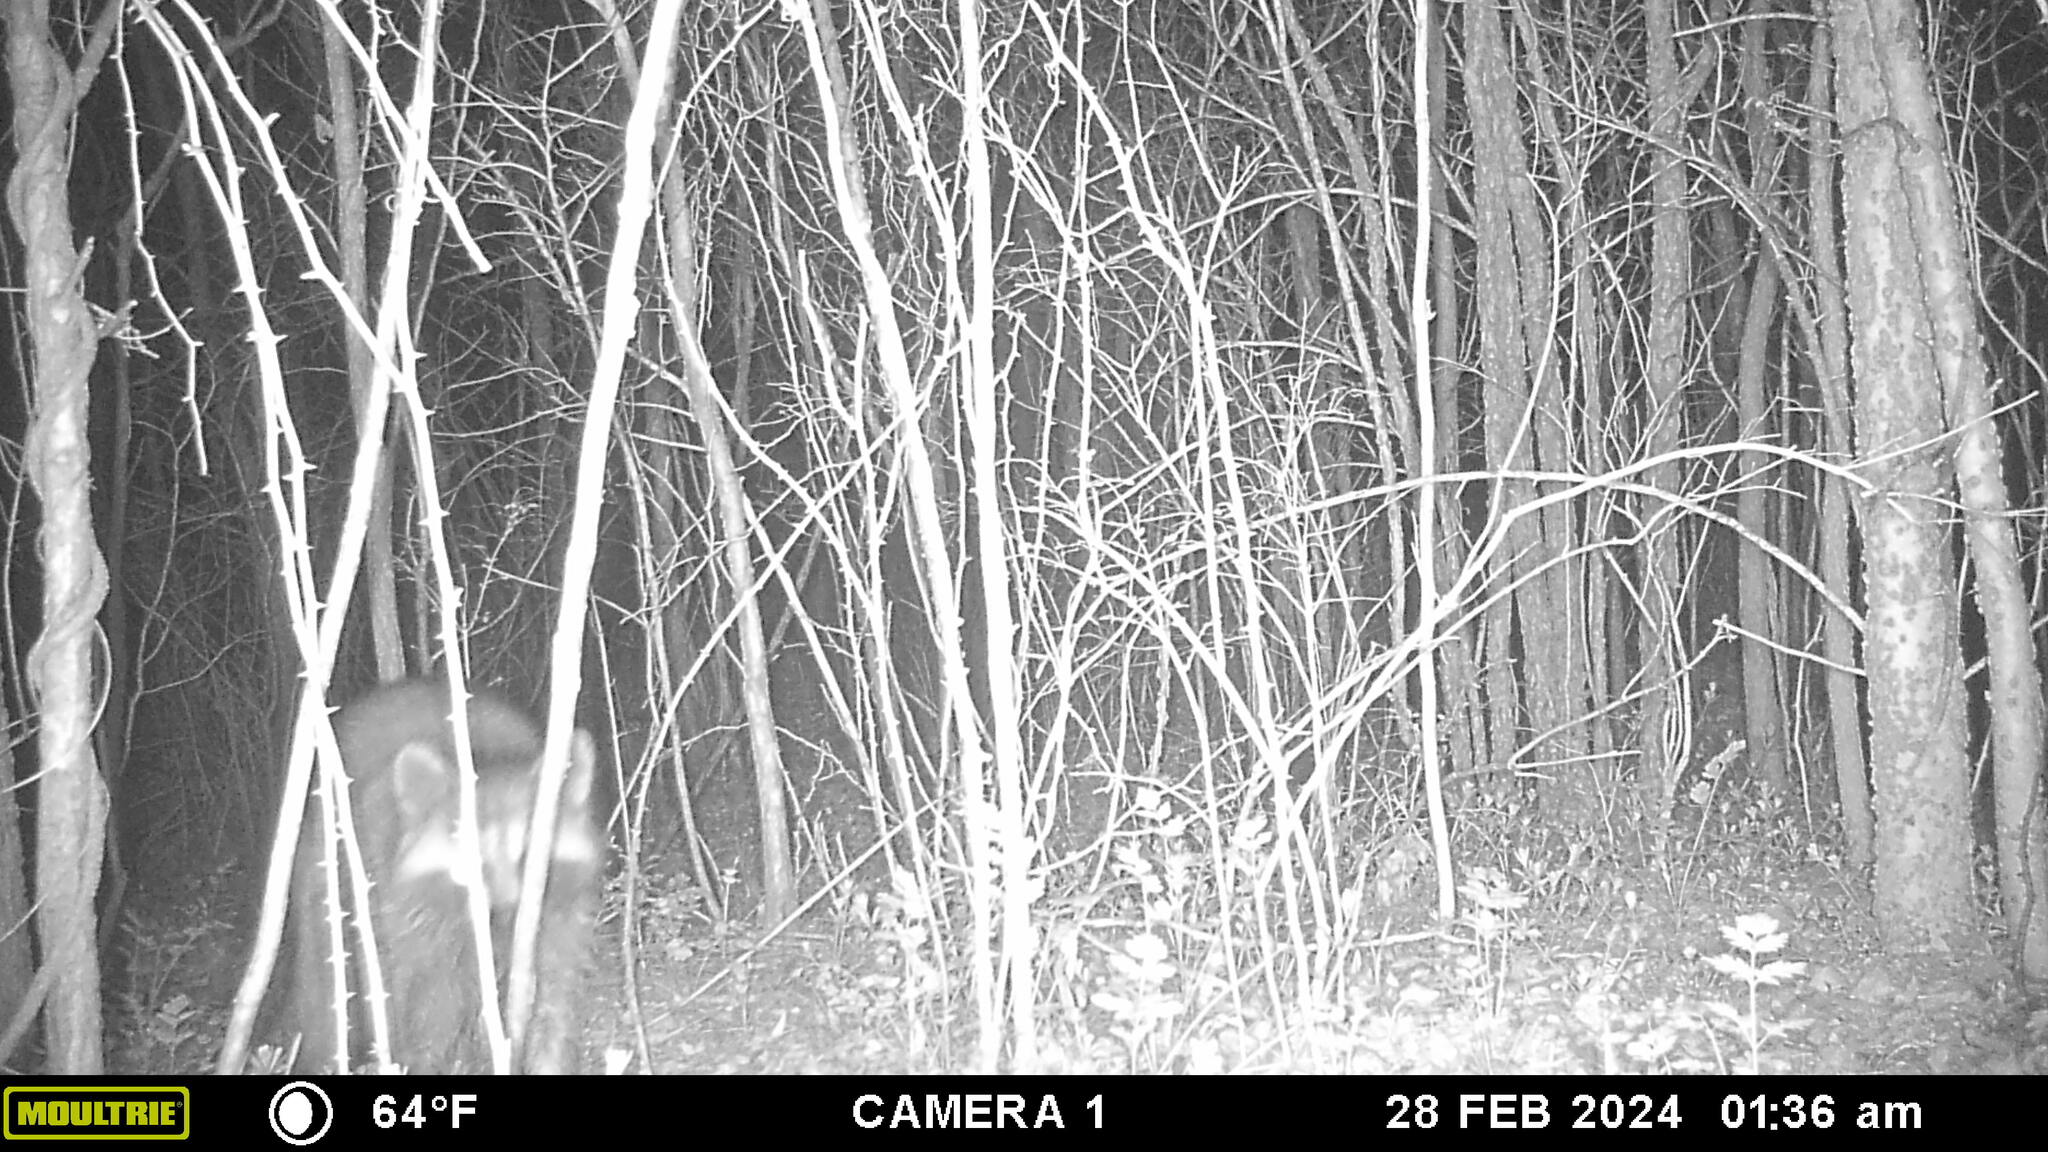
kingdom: Animalia
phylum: Chordata
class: Mammalia
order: Carnivora
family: Procyonidae
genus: Procyon
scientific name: Procyon lotor
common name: Raccoon
